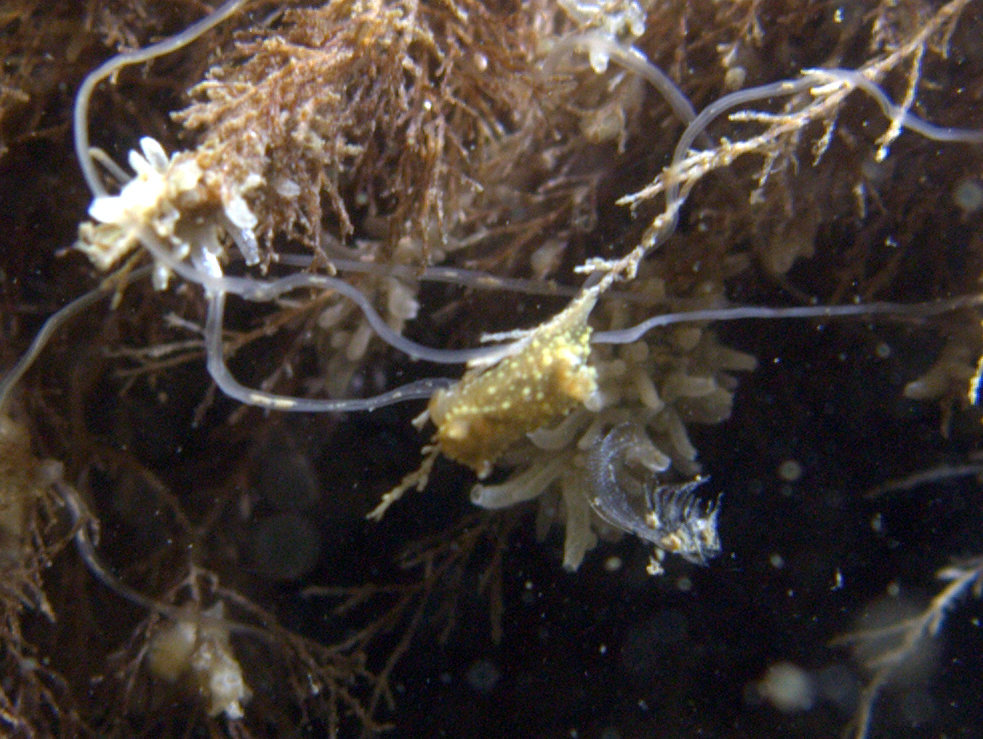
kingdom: Animalia
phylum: Mollusca
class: Gastropoda
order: Nudibranchia
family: Polyceridae
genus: Palio
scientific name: Palio dubia
